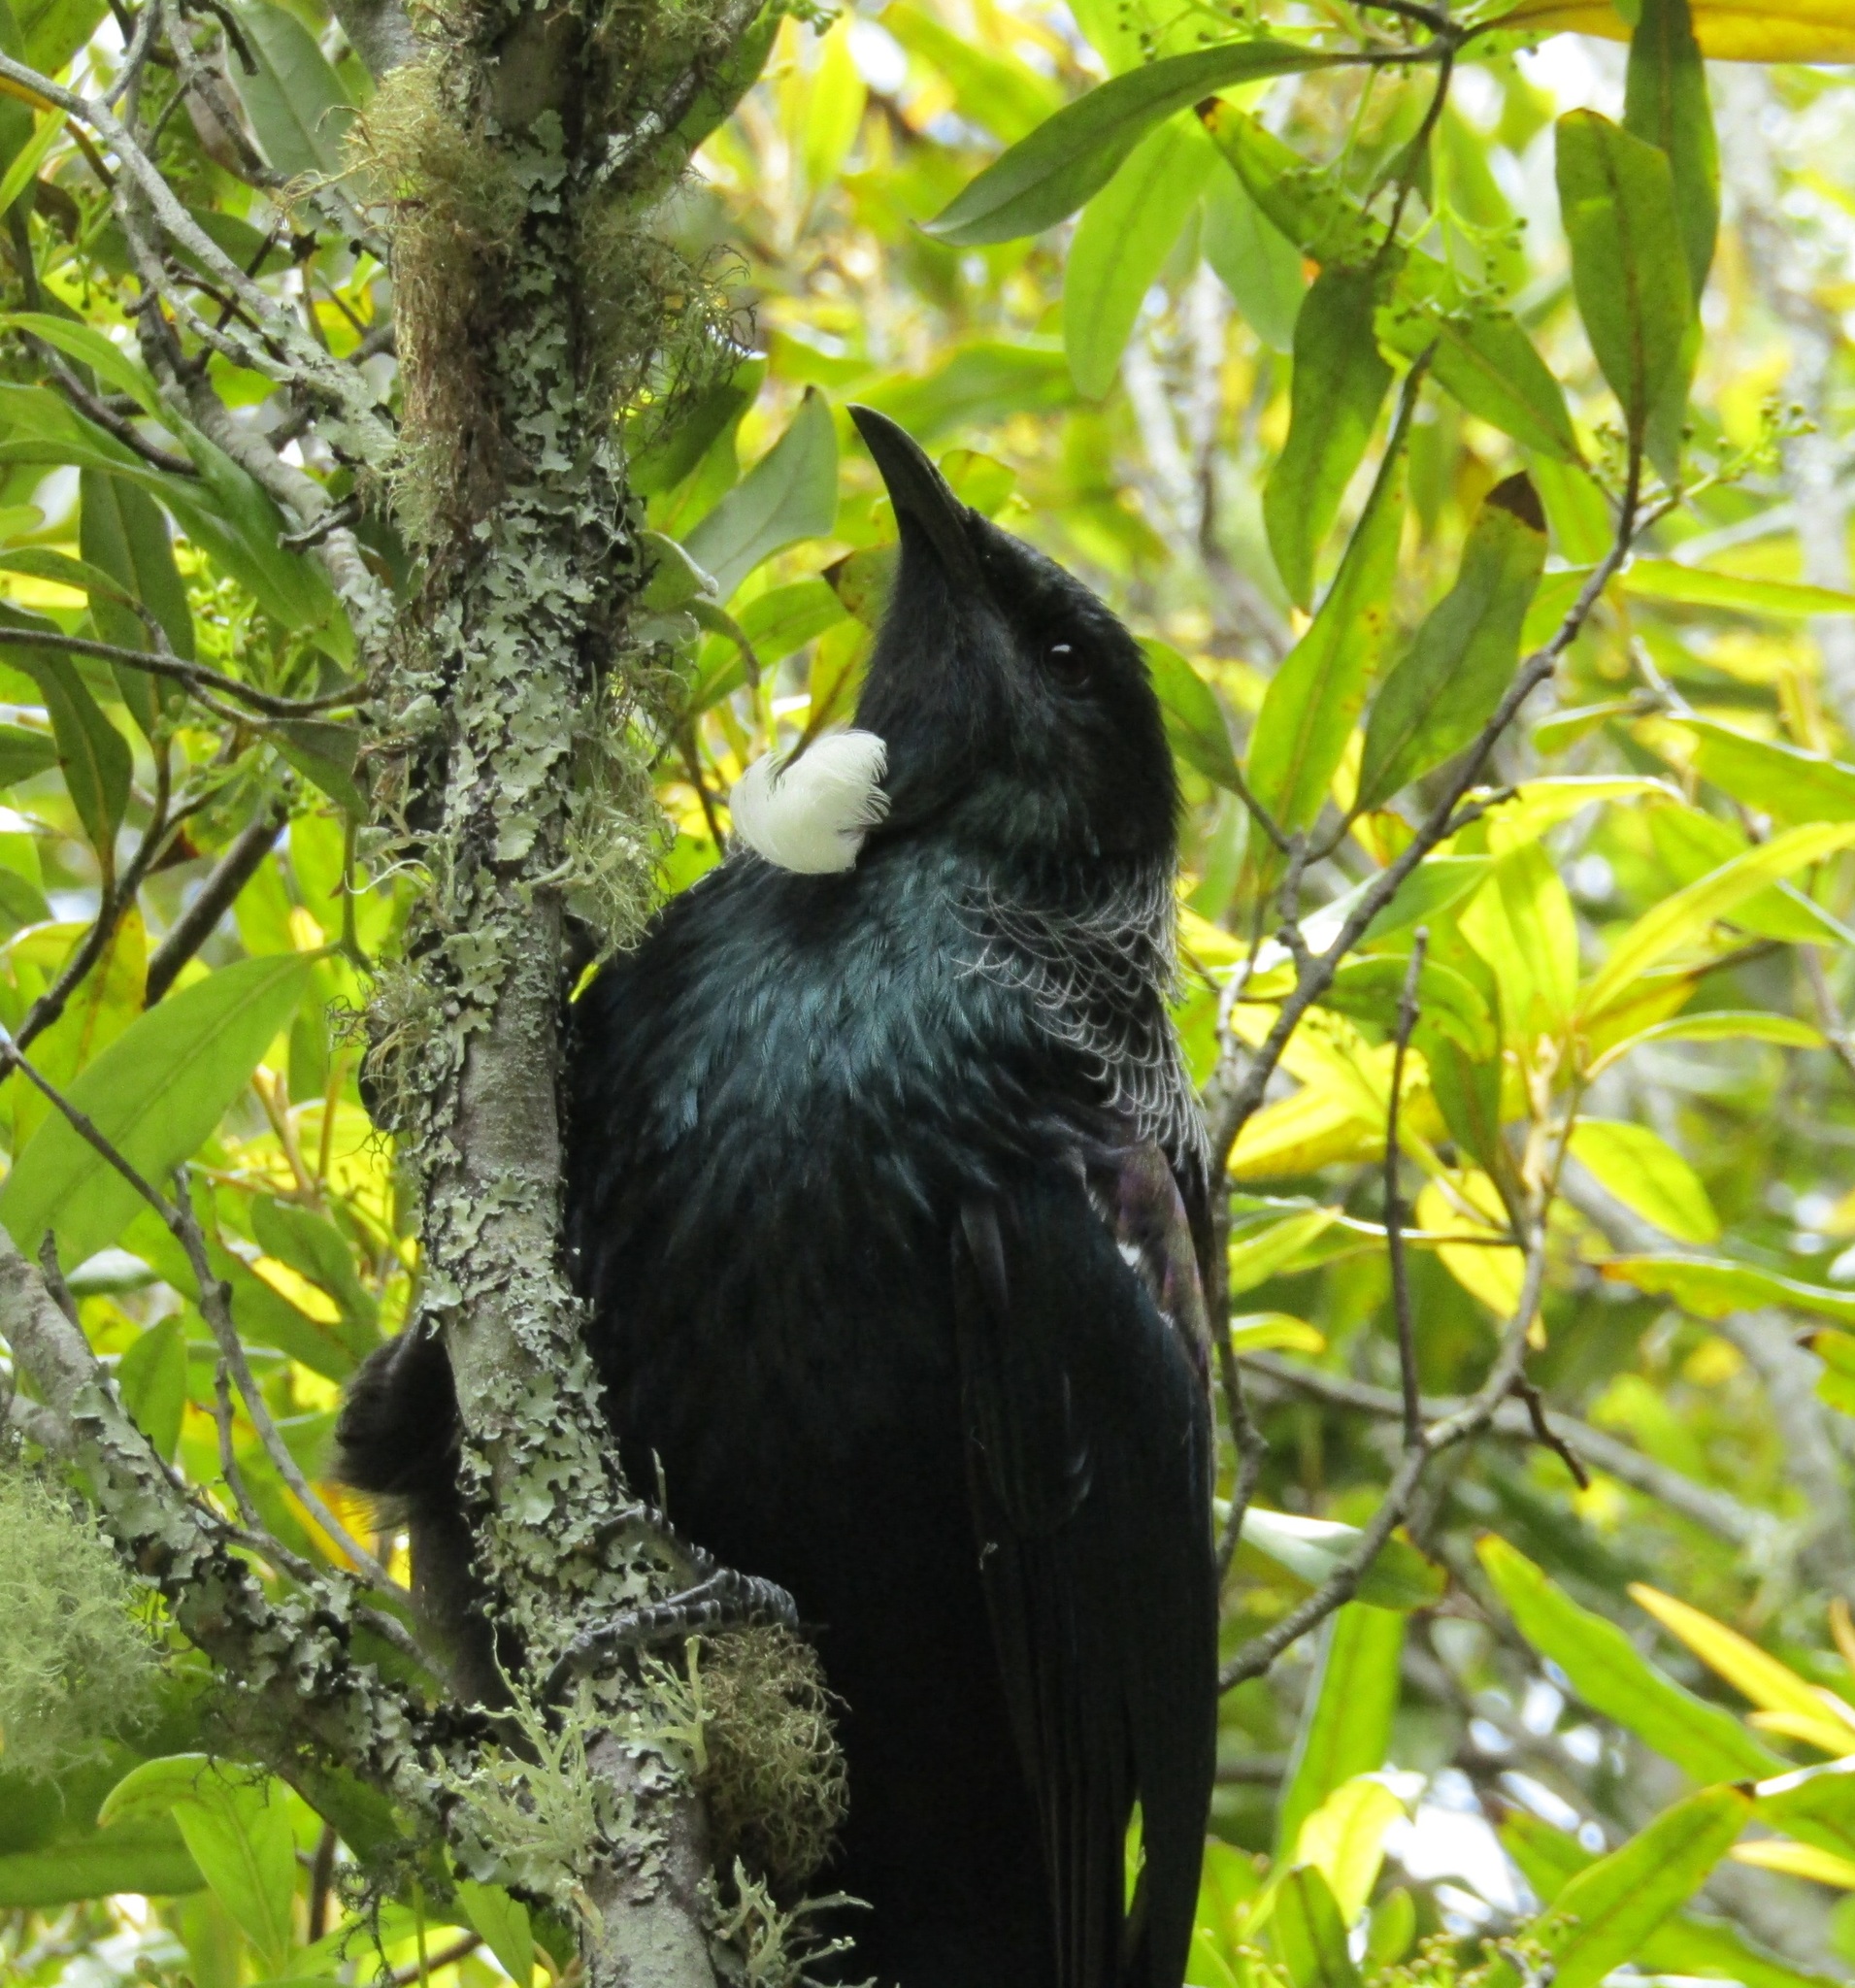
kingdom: Animalia
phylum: Chordata
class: Aves
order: Passeriformes
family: Meliphagidae
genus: Prosthemadera
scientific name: Prosthemadera novaeseelandiae
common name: Tui
